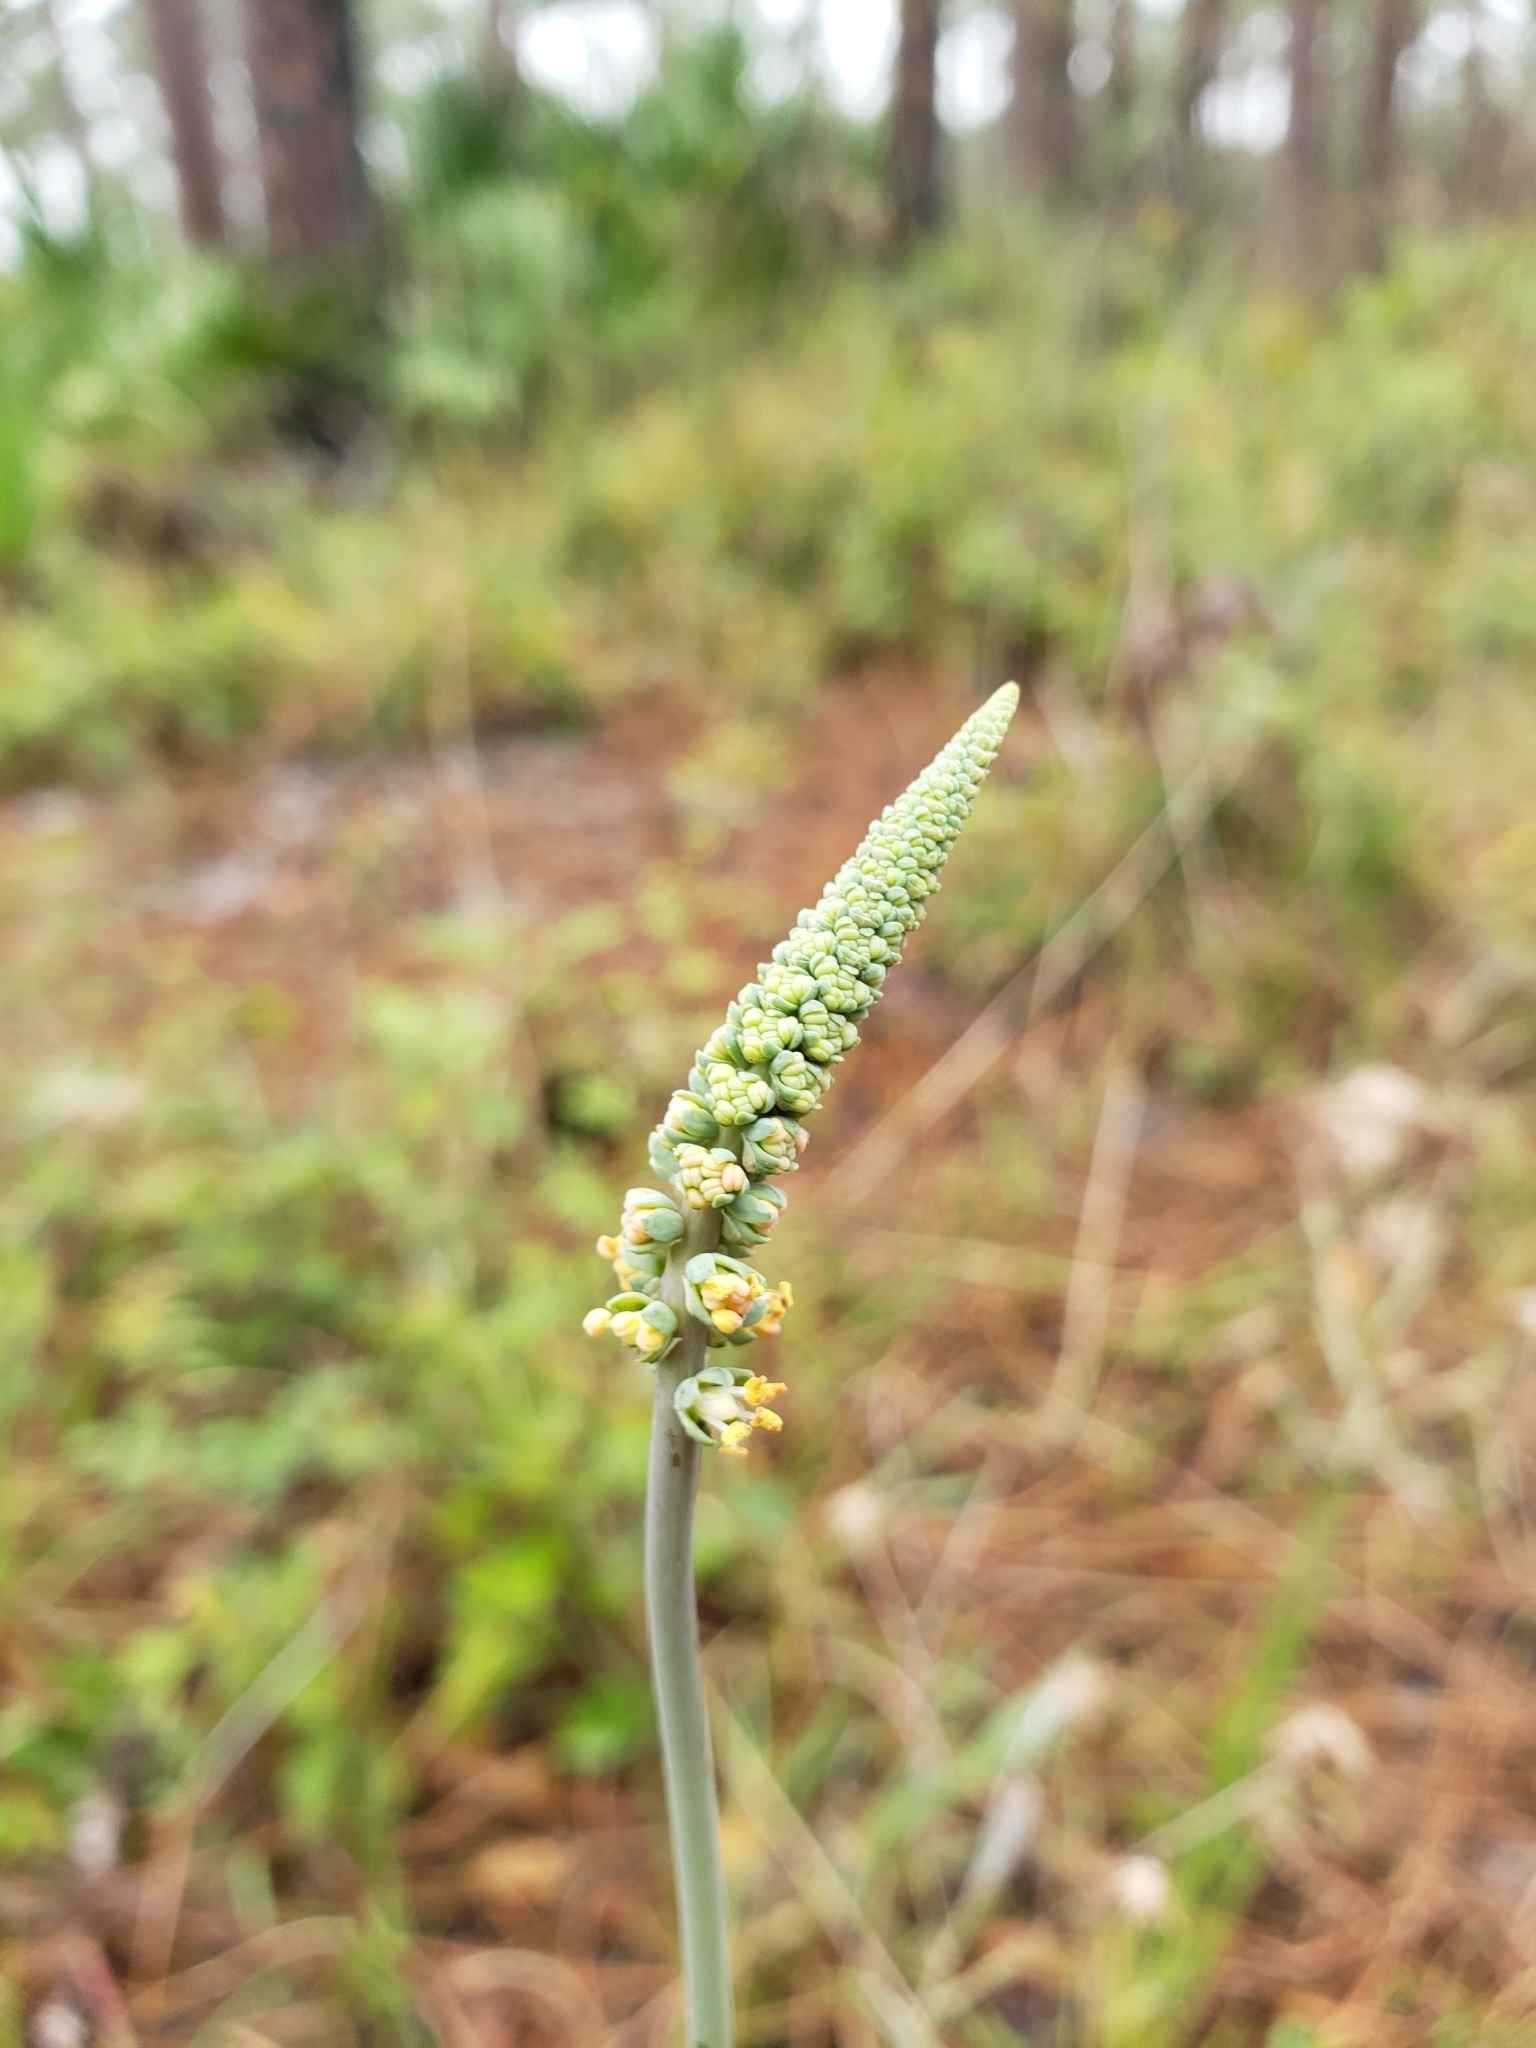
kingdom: Plantae
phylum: Tracheophyta
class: Liliopsida
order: Liliales
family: Melanthiaceae
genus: Schoenocaulon
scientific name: Schoenocaulon dubium
